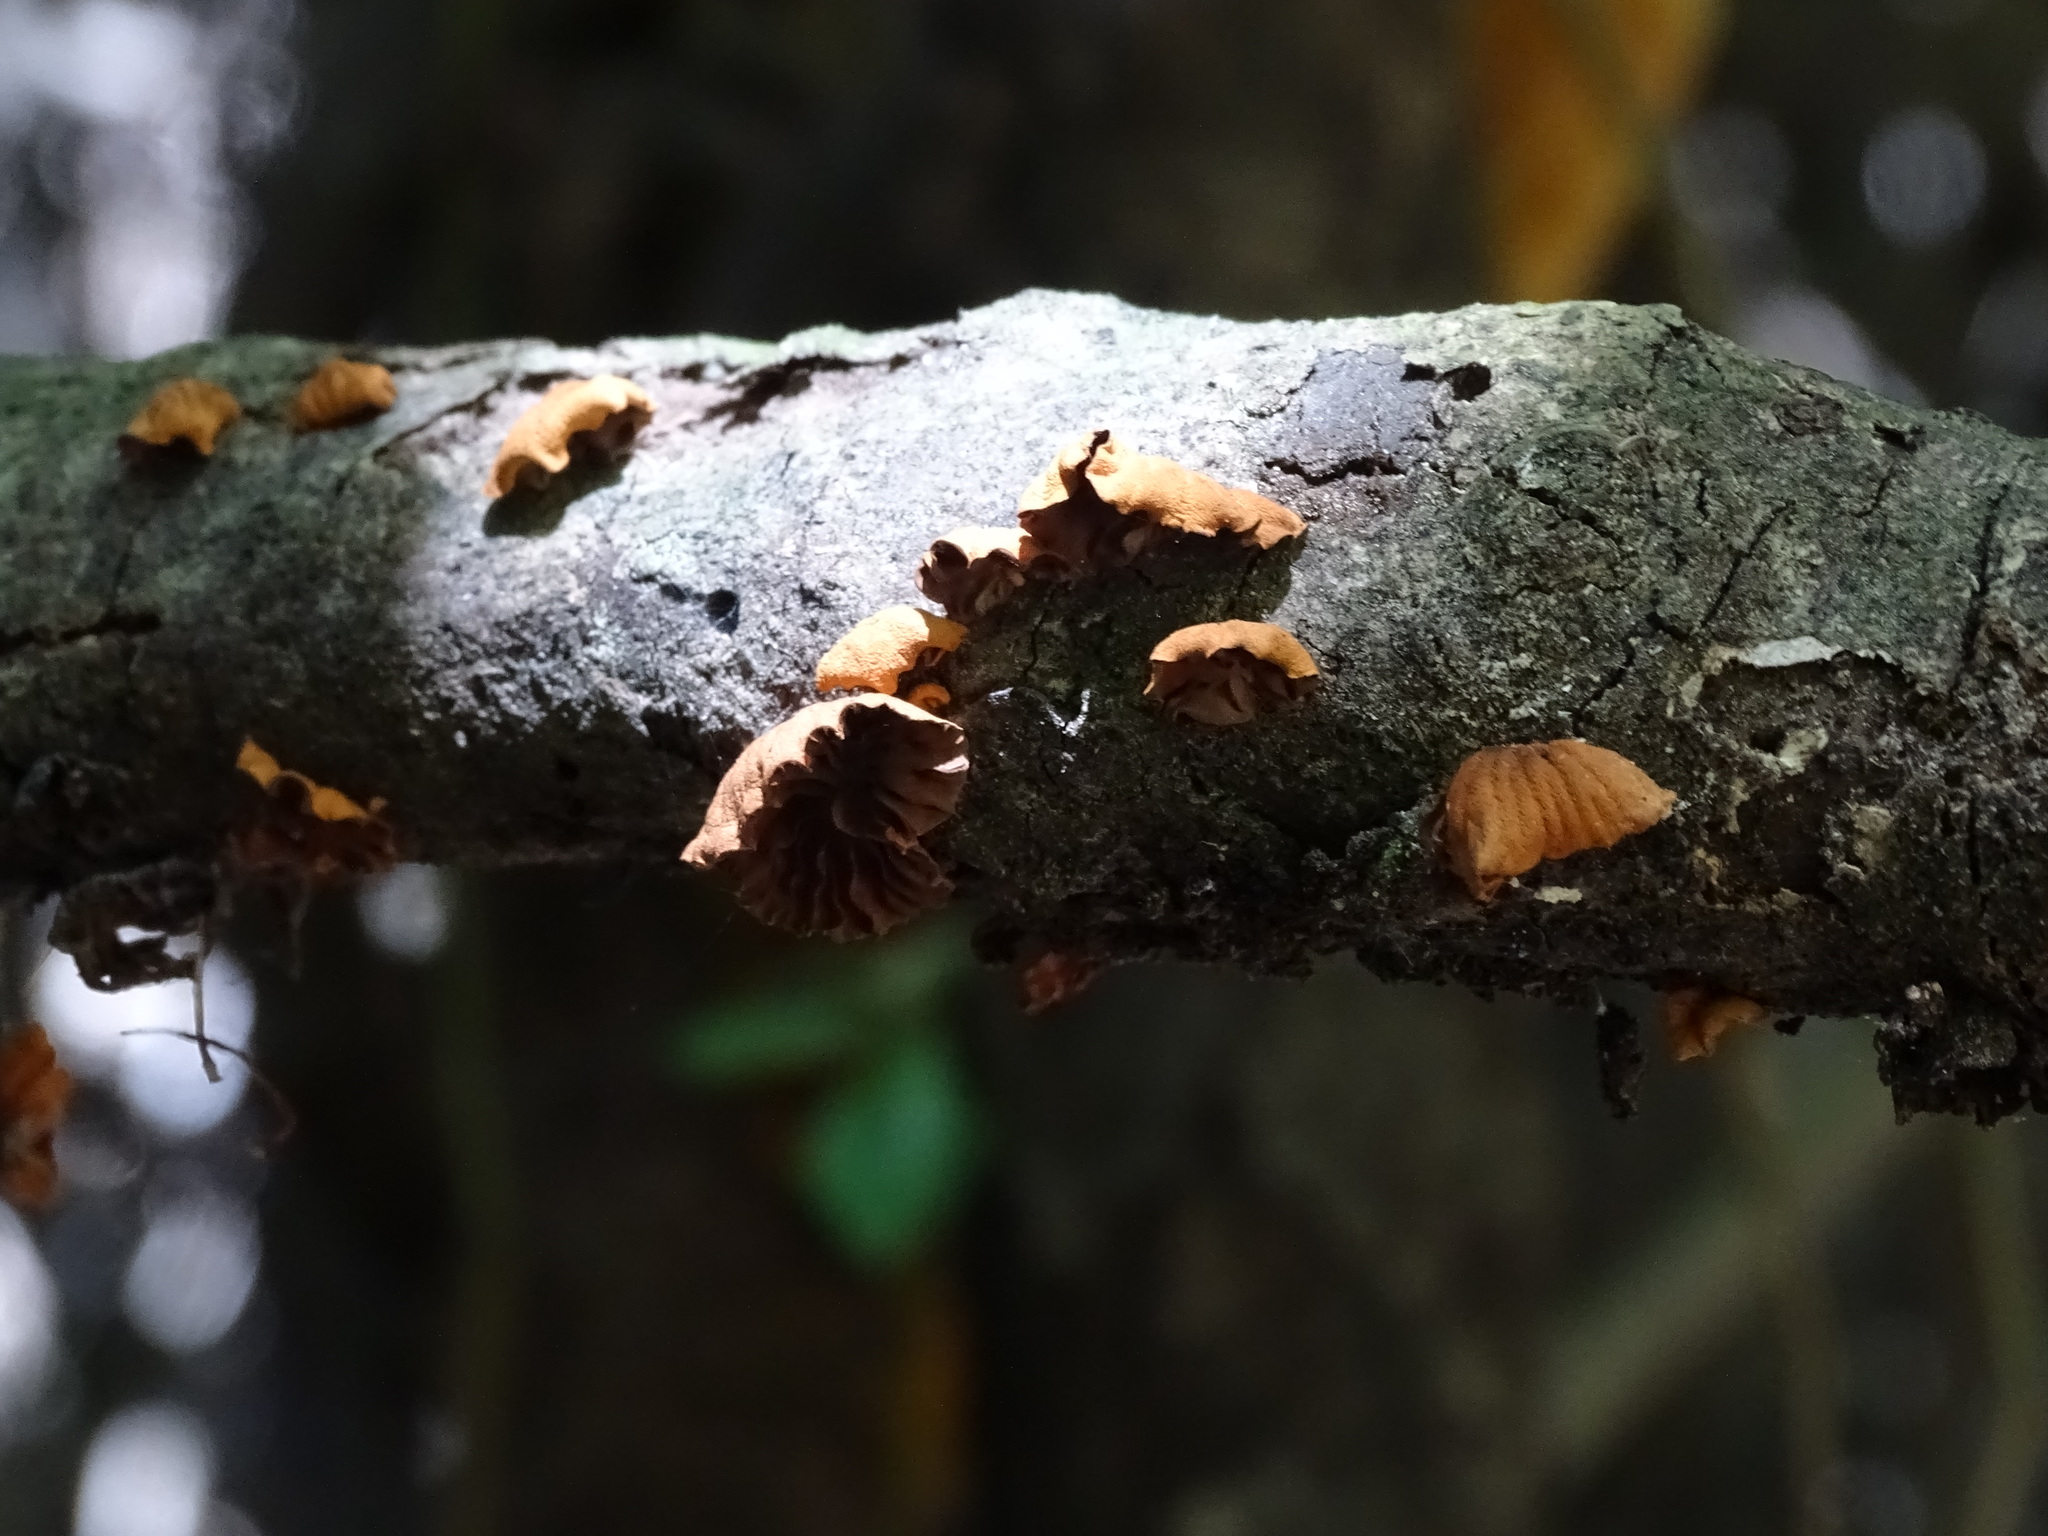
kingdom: Fungi
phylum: Basidiomycota
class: Agaricomycetes
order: Agaricales
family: Omphalotaceae
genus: Anthracophyllum
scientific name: Anthracophyllum discolor
